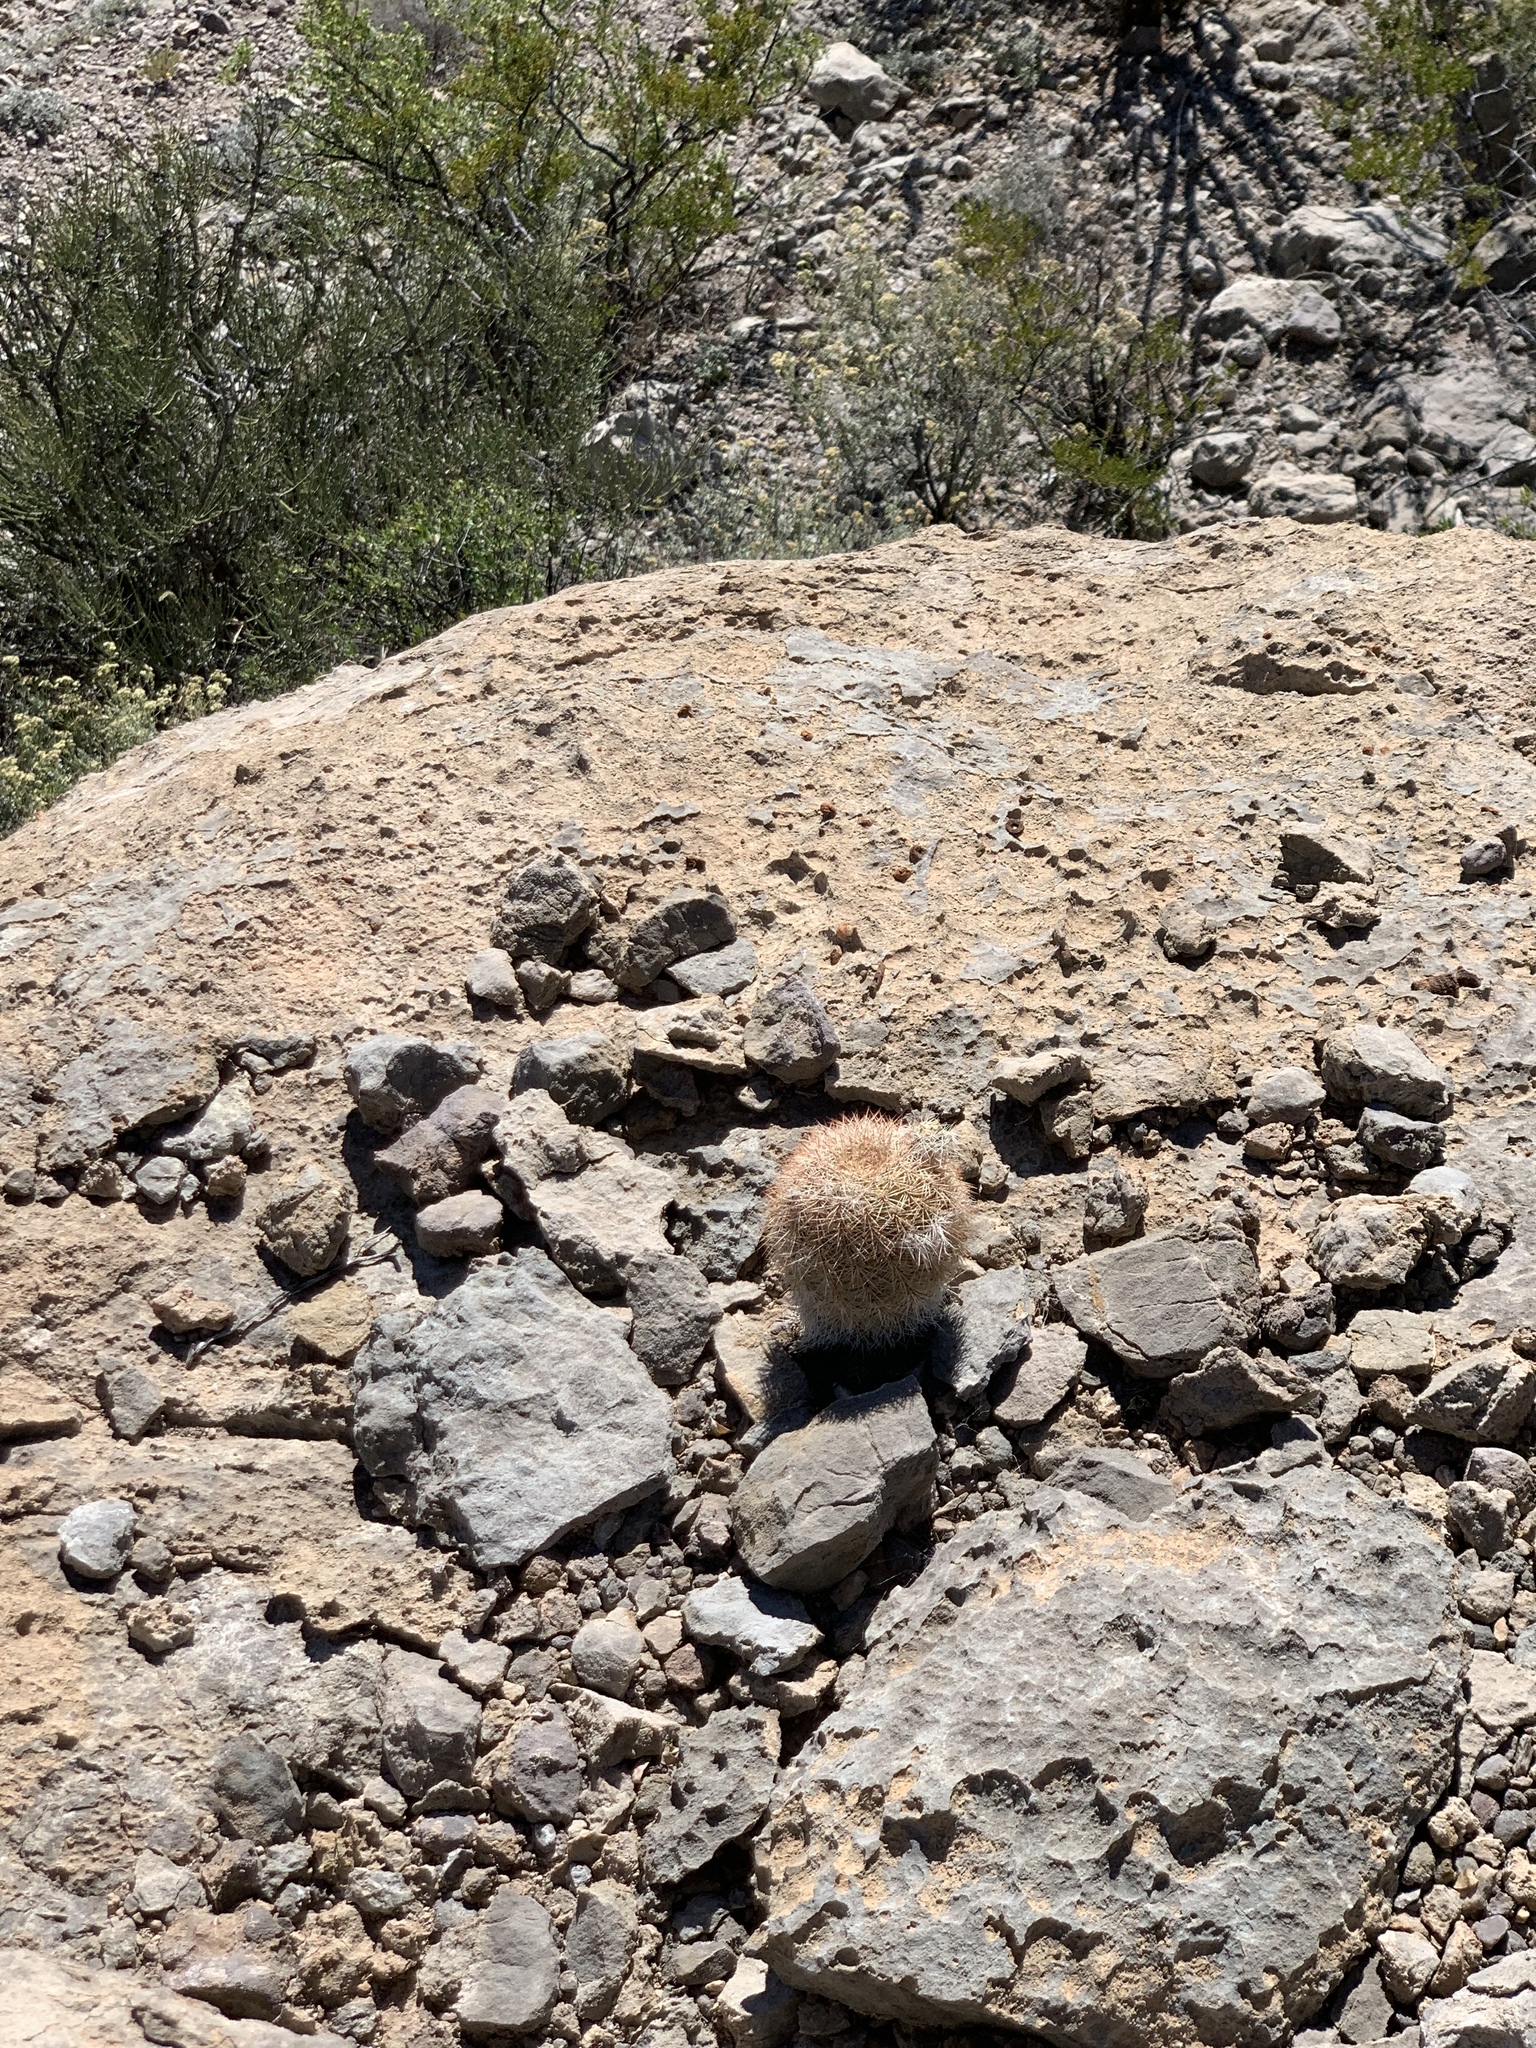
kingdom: Plantae
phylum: Tracheophyta
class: Magnoliopsida
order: Caryophyllales
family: Cactaceae
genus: Echinocereus
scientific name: Echinocereus dasyacanthus
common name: Spiny hedgehog cactus
